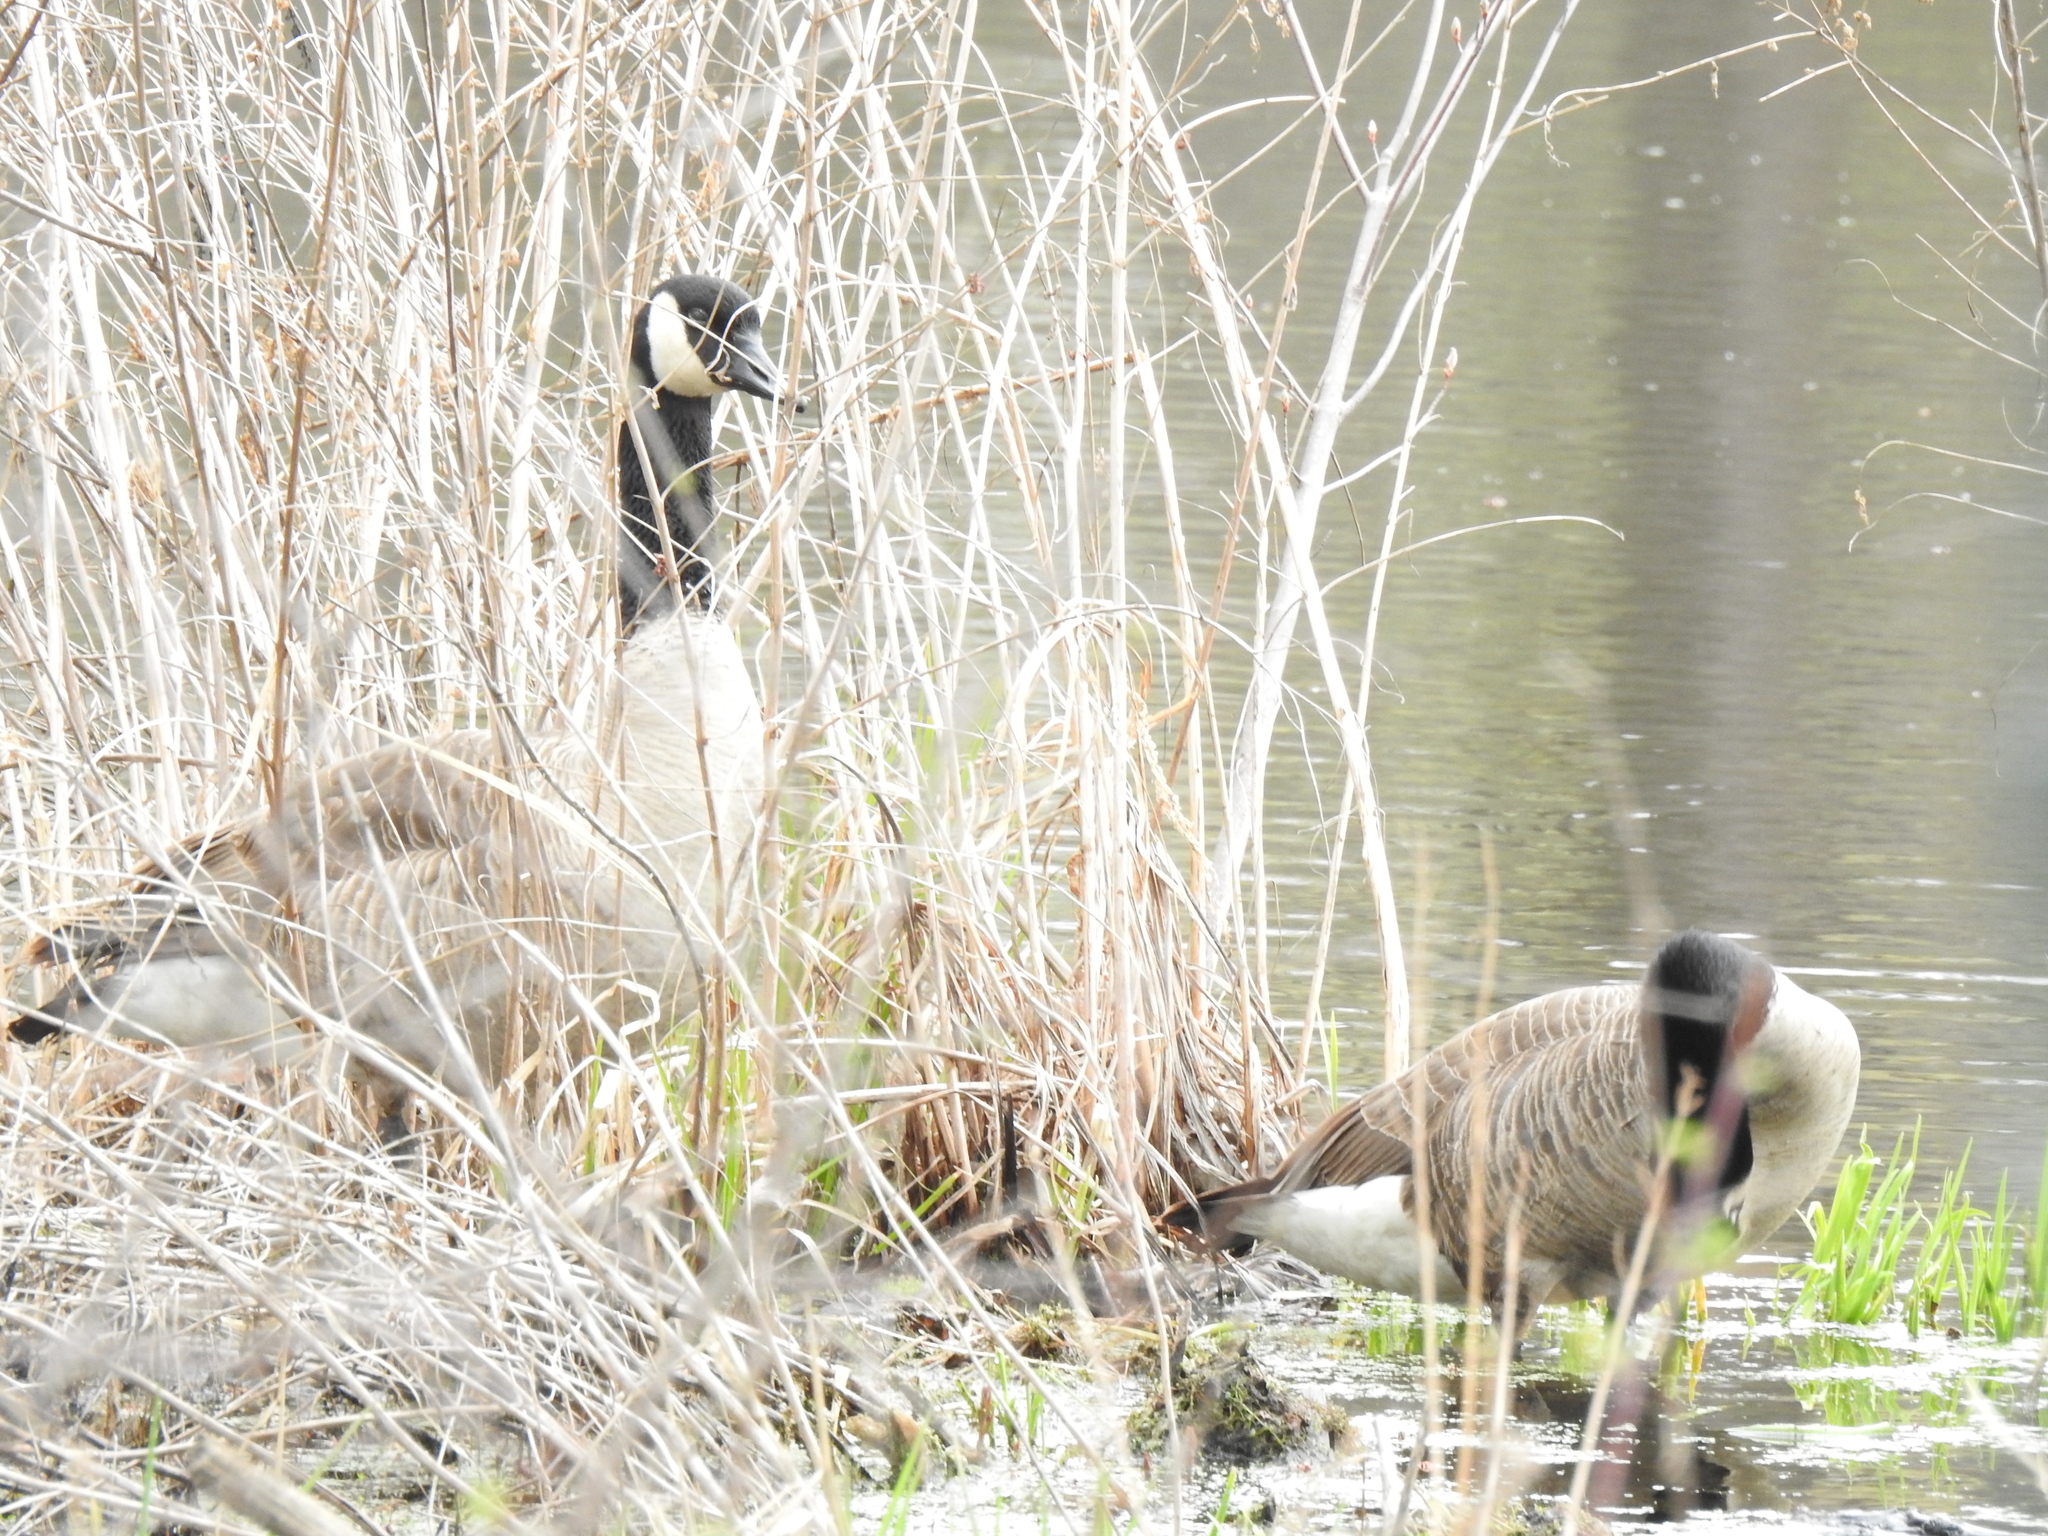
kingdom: Animalia
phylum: Chordata
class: Aves
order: Anseriformes
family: Anatidae
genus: Branta
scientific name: Branta canadensis
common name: Canada goose
